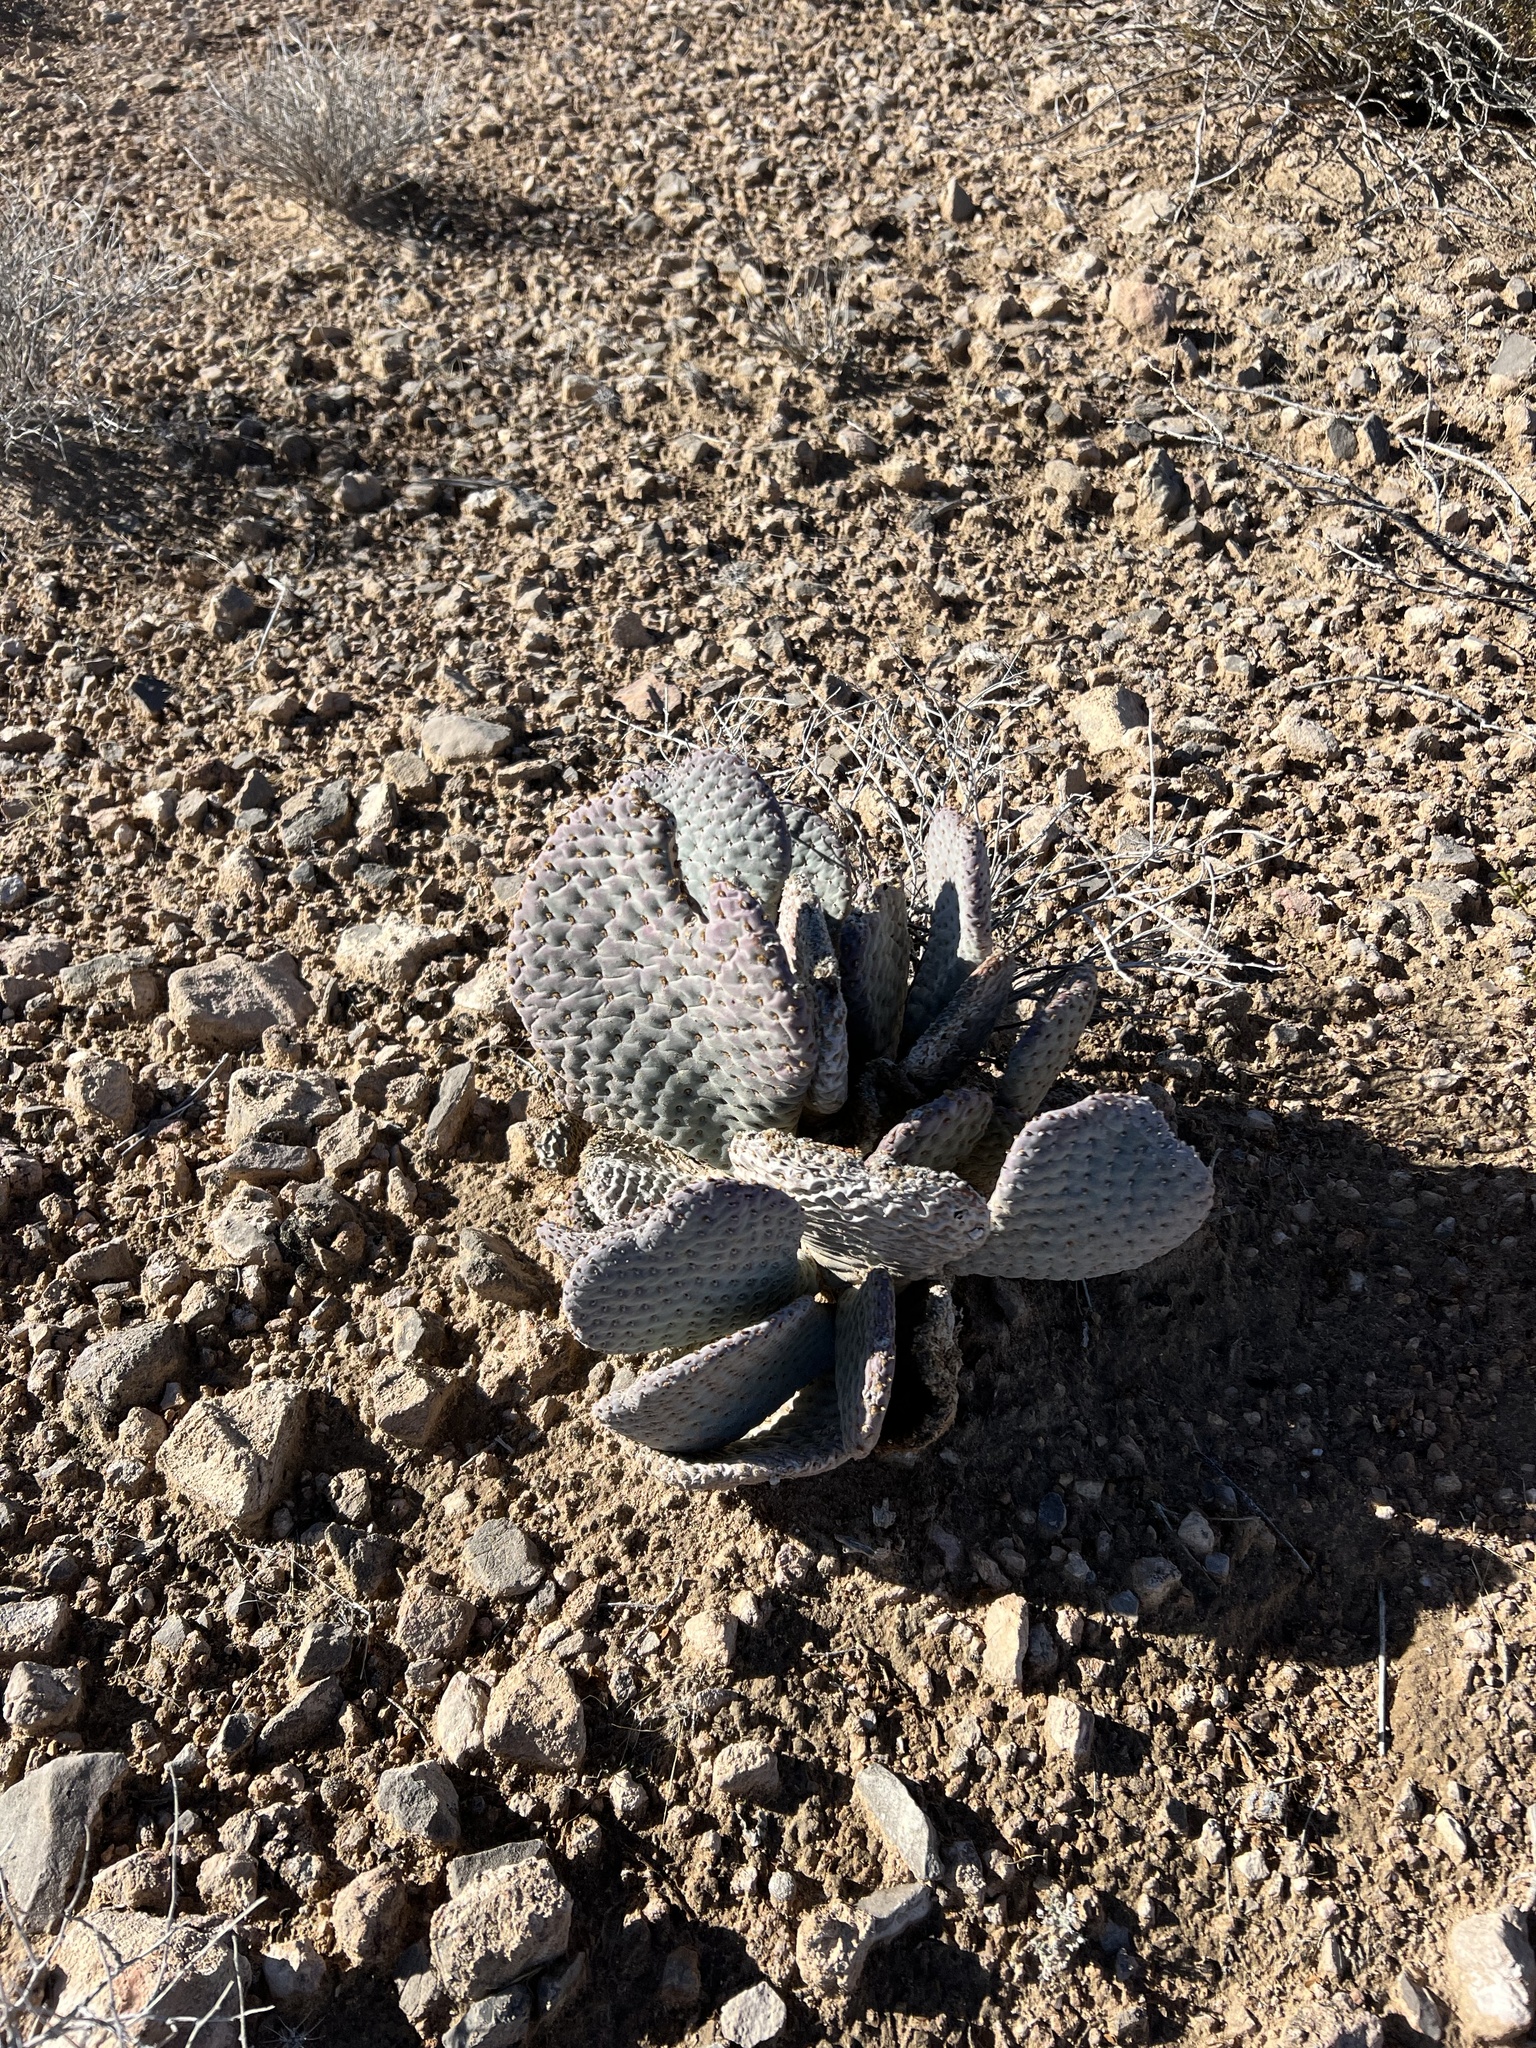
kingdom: Plantae
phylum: Tracheophyta
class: Magnoliopsida
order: Caryophyllales
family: Cactaceae
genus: Opuntia
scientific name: Opuntia basilaris
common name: Beavertail prickly-pear
